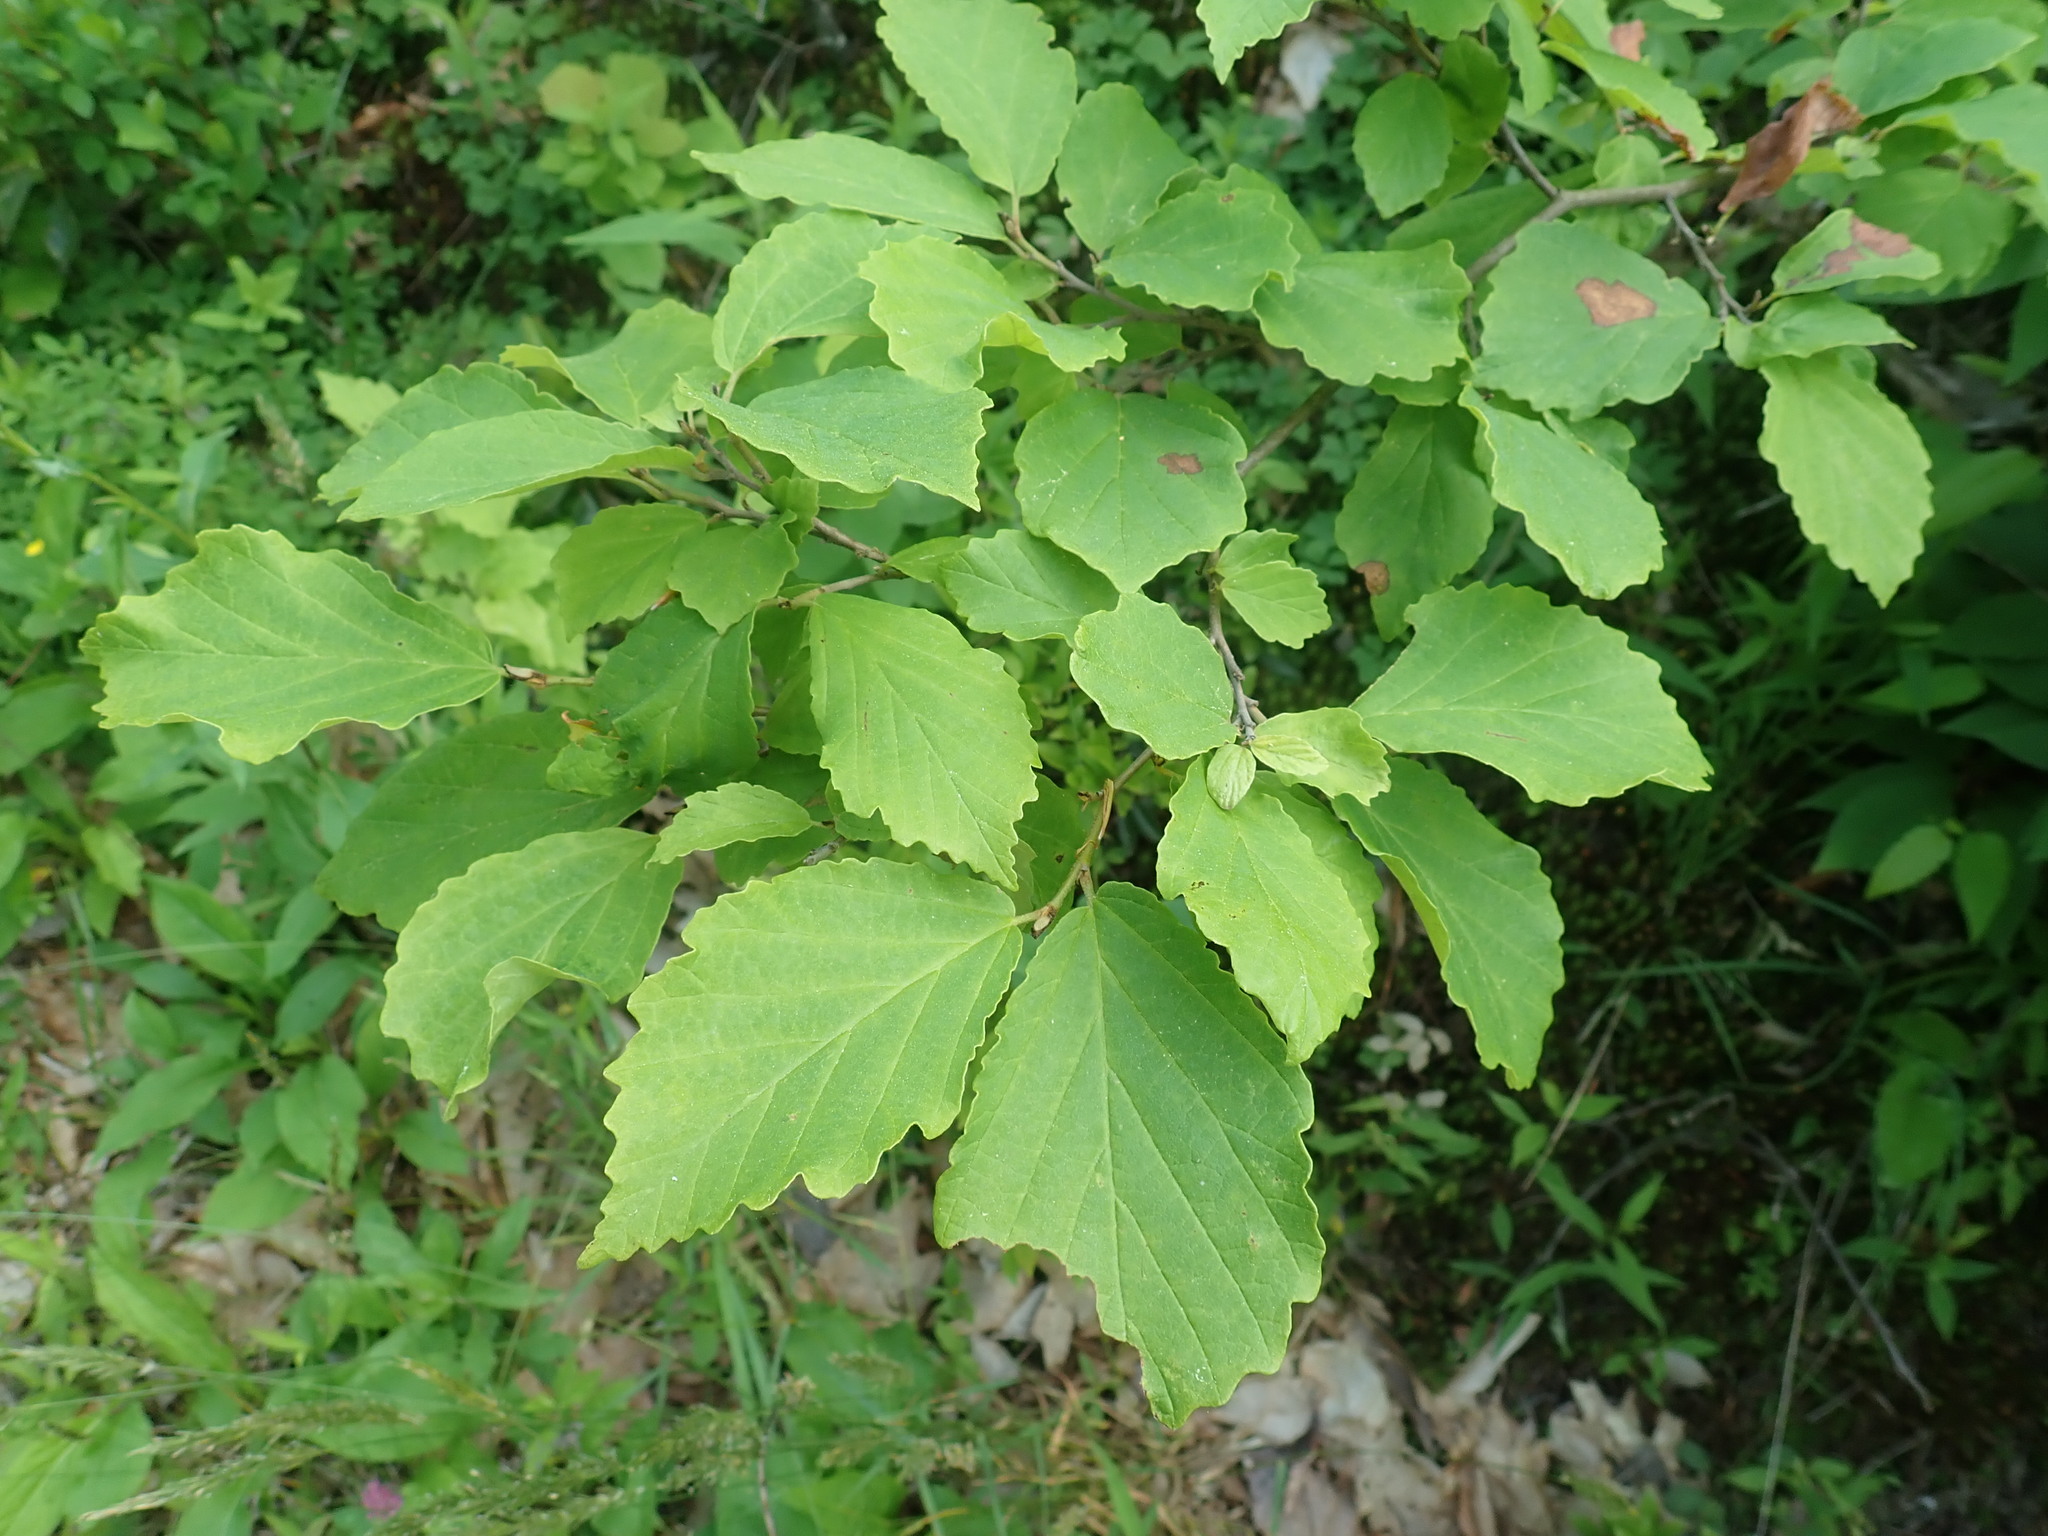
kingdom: Plantae
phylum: Tracheophyta
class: Magnoliopsida
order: Saxifragales
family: Hamamelidaceae
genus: Hamamelis
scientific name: Hamamelis virginiana
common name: Witch-hazel
